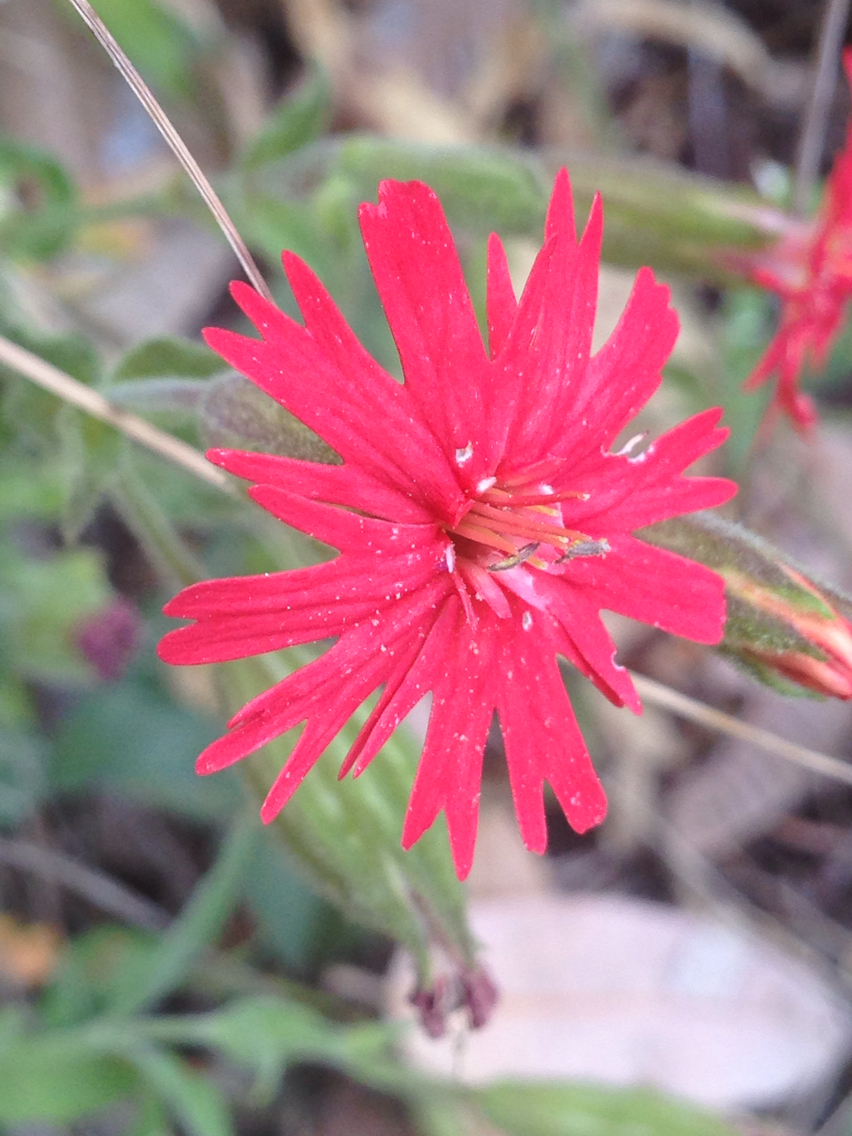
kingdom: Plantae
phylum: Tracheophyta
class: Magnoliopsida
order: Caryophyllales
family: Caryophyllaceae
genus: Silene
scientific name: Silene laciniata
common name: Indian-pink
